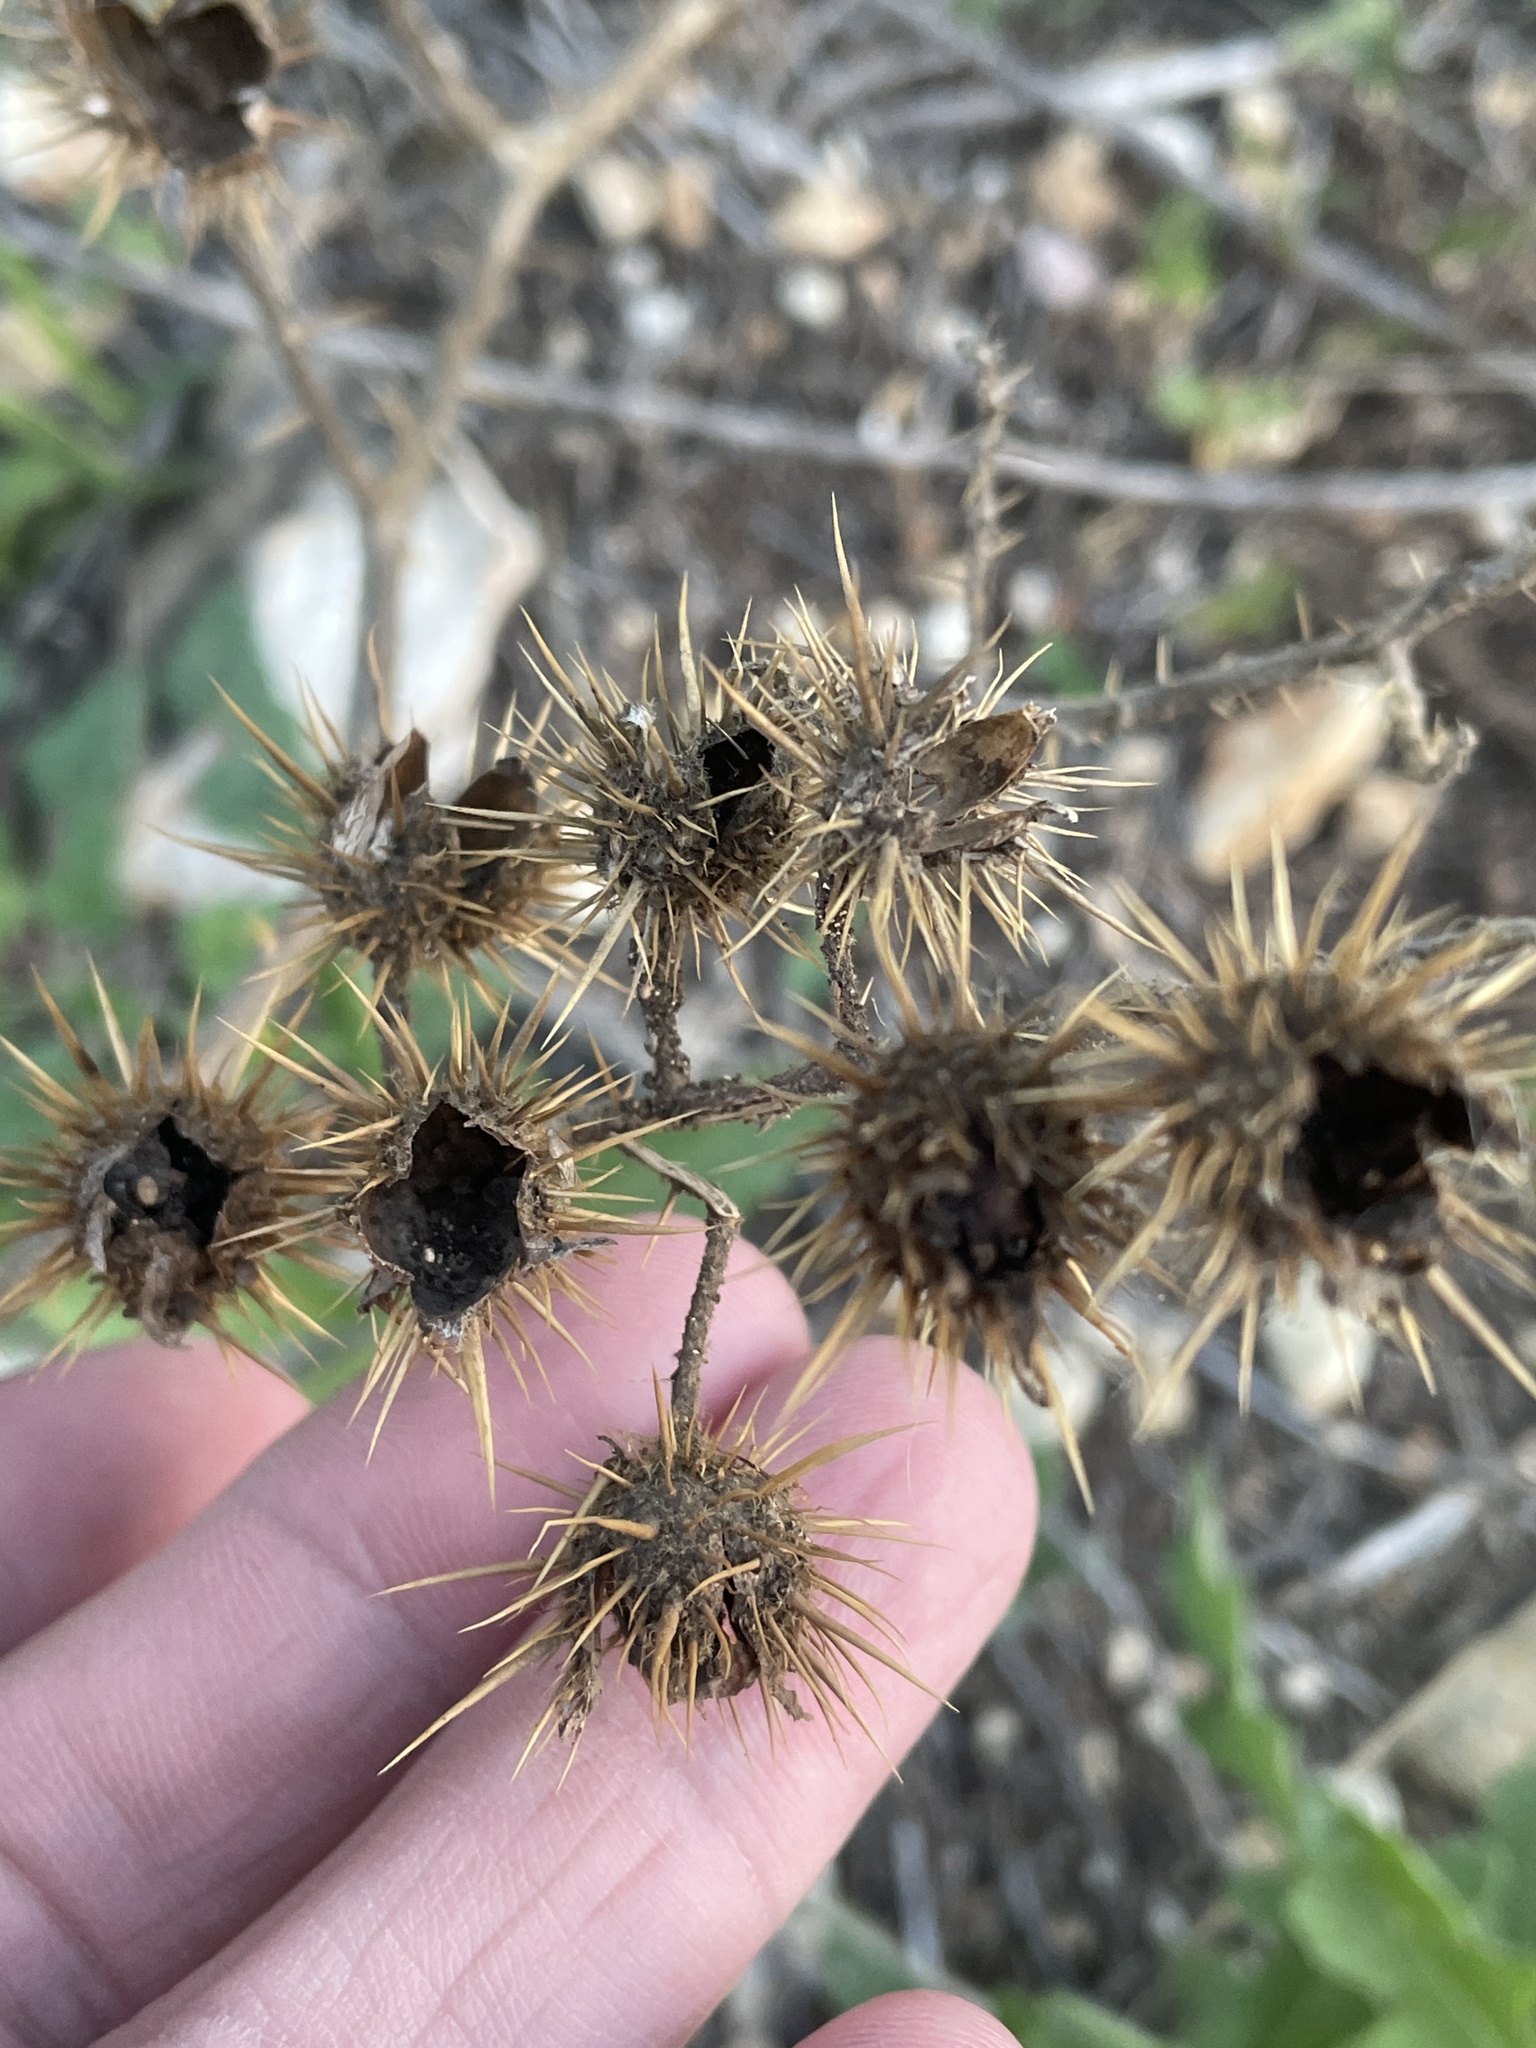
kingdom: Plantae
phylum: Tracheophyta
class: Magnoliopsida
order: Solanales
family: Solanaceae
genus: Solanum
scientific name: Solanum angustifolium
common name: Buffalobur nightshade
